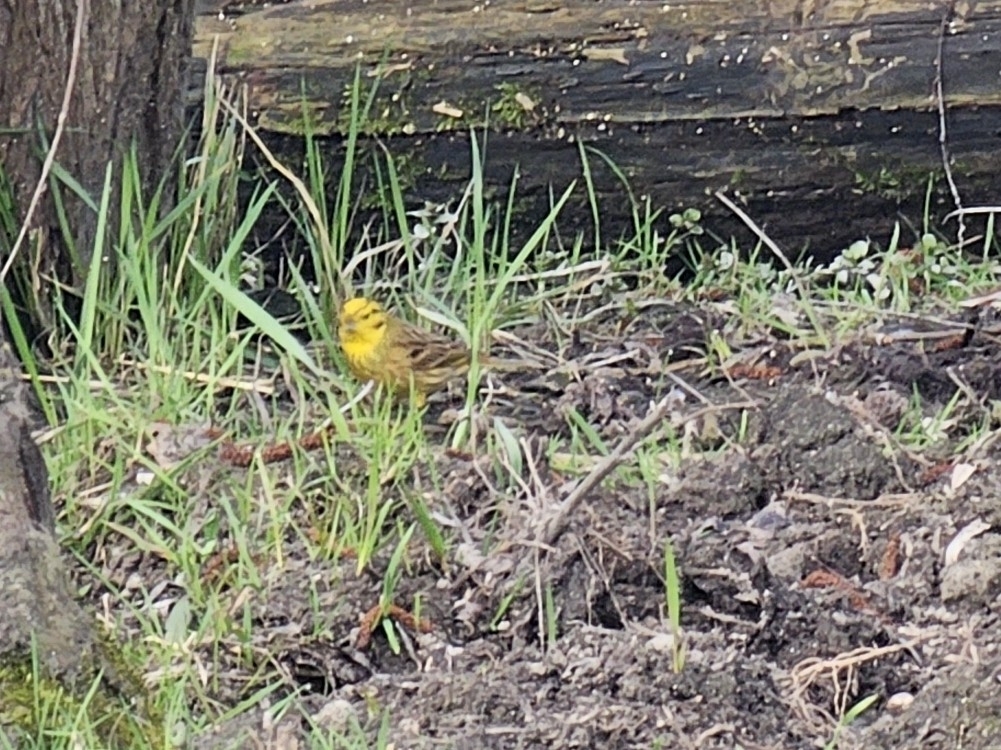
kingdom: Animalia
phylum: Chordata
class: Aves
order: Passeriformes
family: Emberizidae
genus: Emberiza
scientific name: Emberiza citrinella
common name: Yellowhammer
